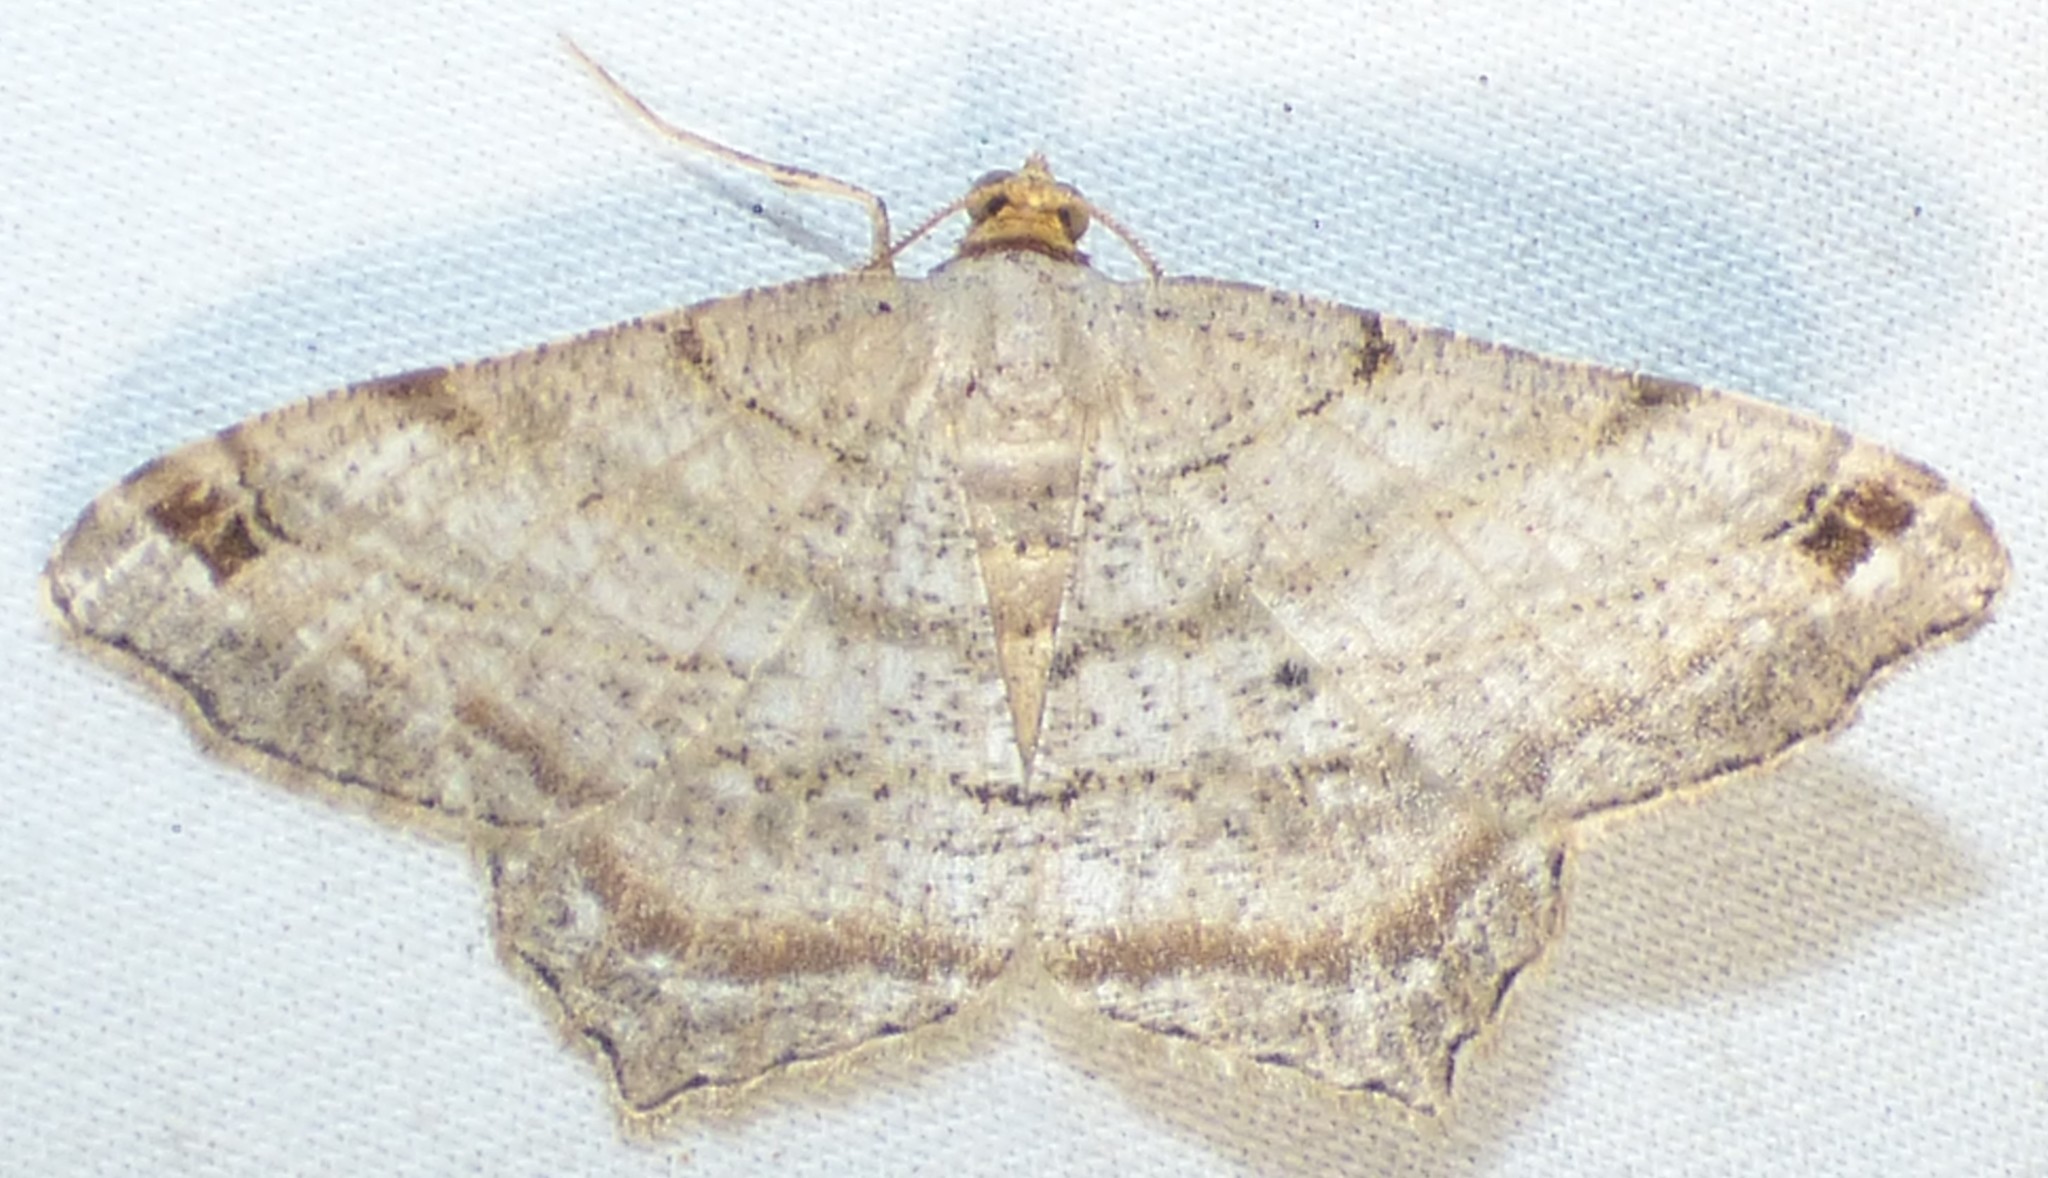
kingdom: Animalia
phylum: Arthropoda
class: Insecta
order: Lepidoptera
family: Geometridae
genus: Macaria
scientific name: Macaria multilineata
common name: Many-lined angle
